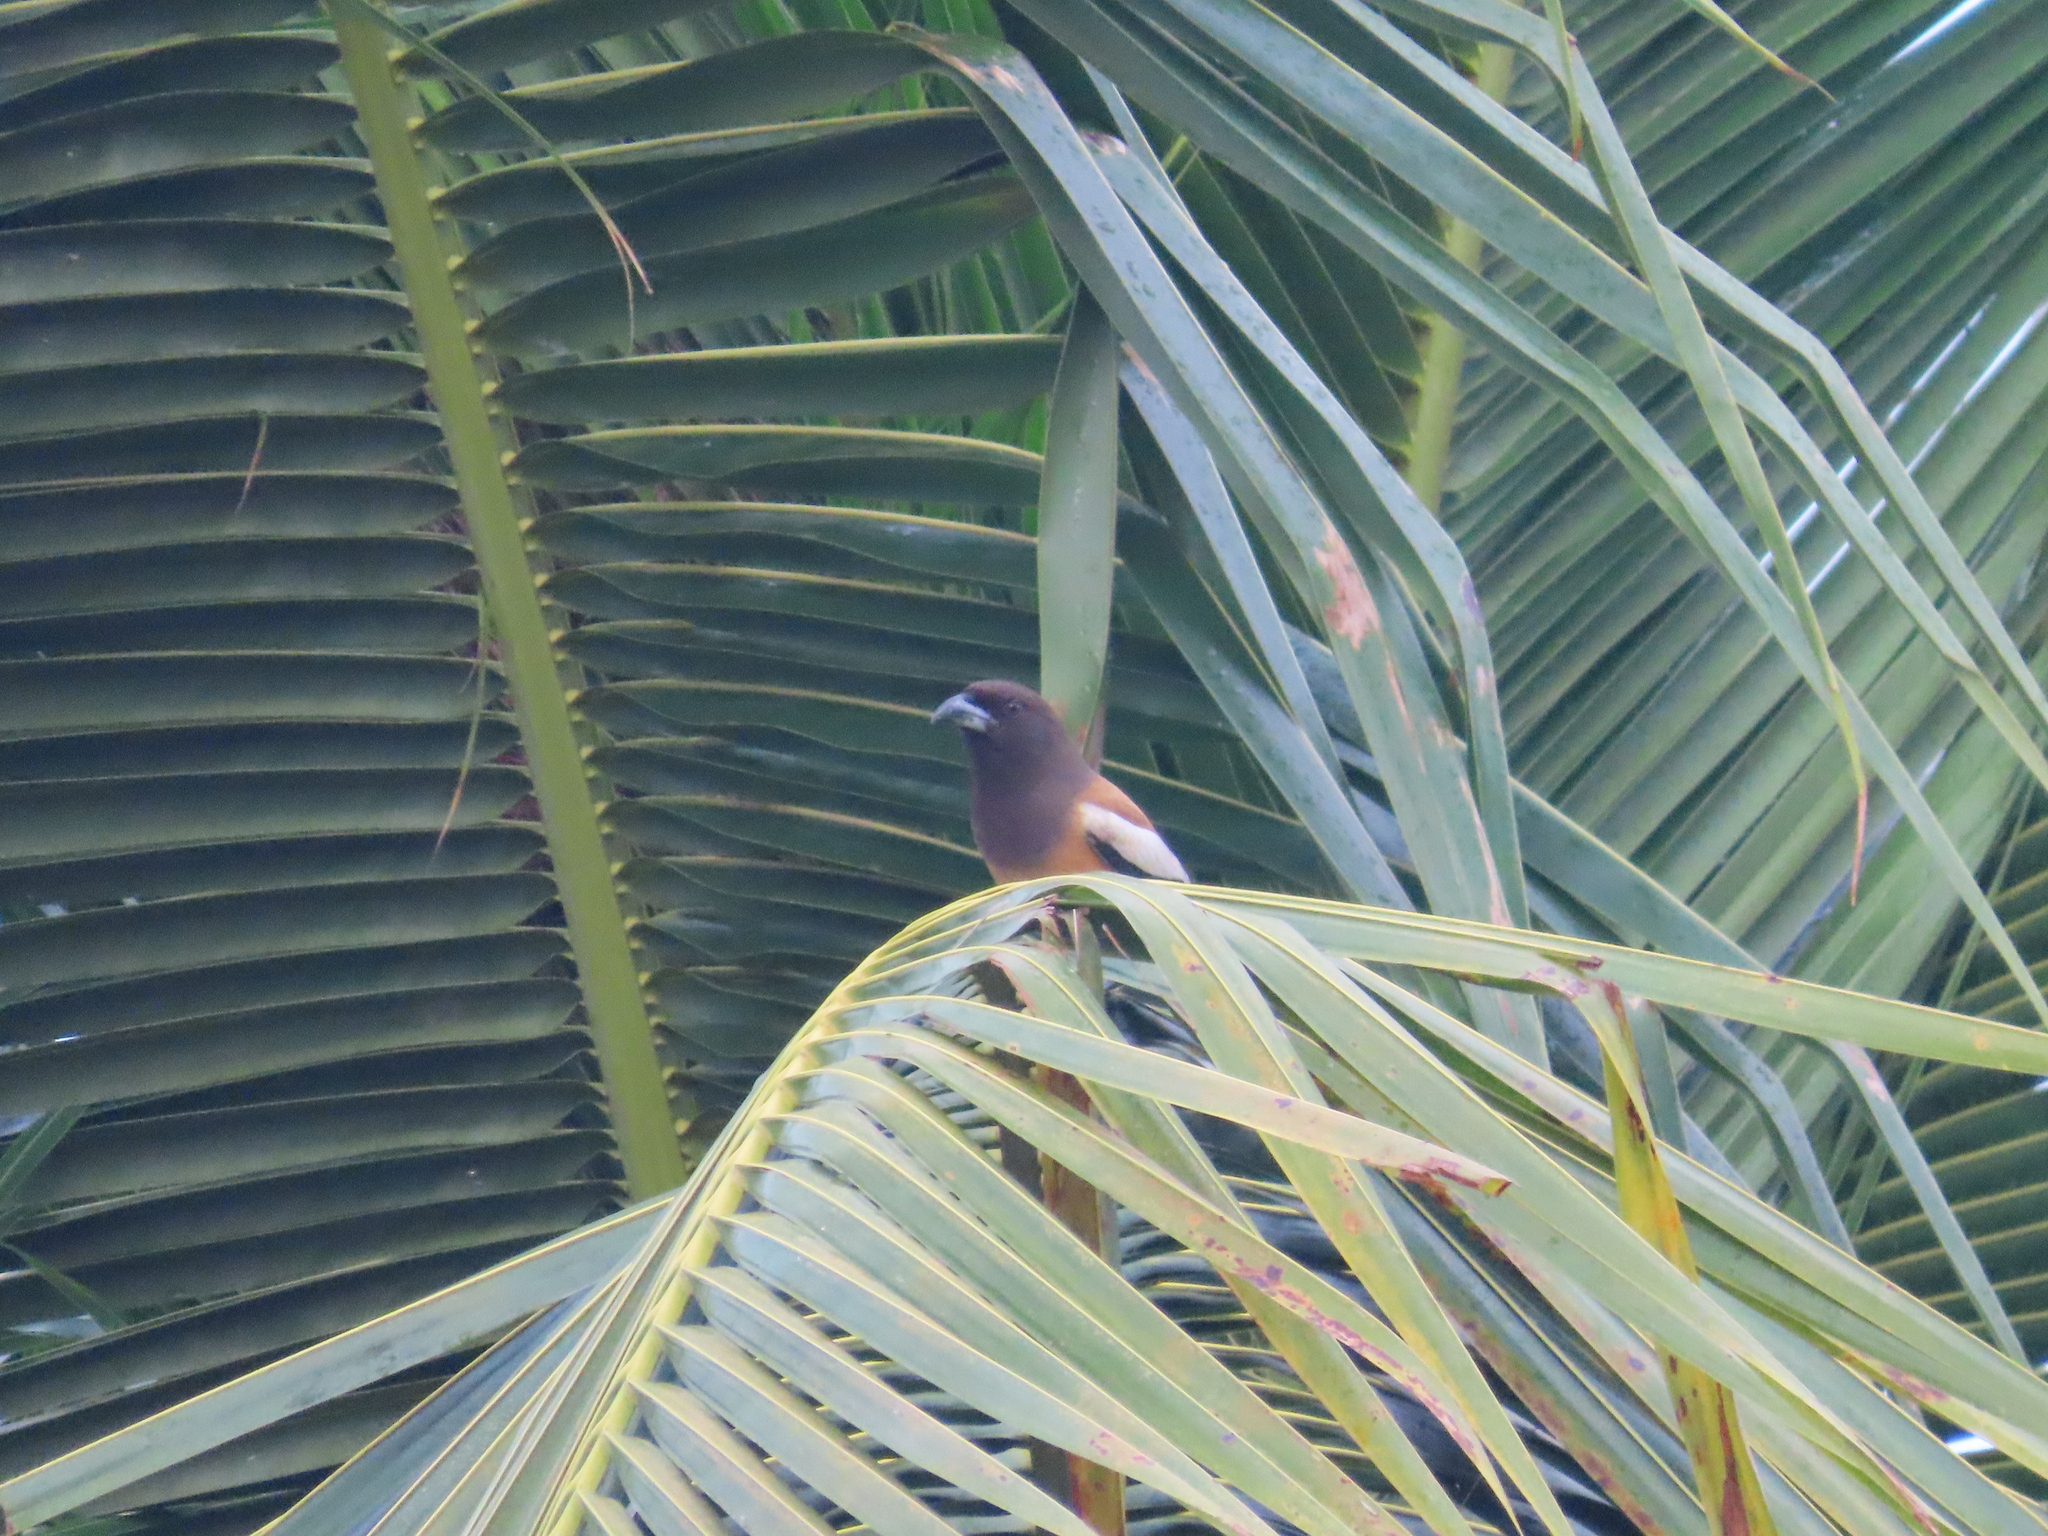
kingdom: Animalia
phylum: Chordata
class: Aves
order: Passeriformes
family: Corvidae
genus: Dendrocitta
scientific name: Dendrocitta vagabunda
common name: Rufous treepie
